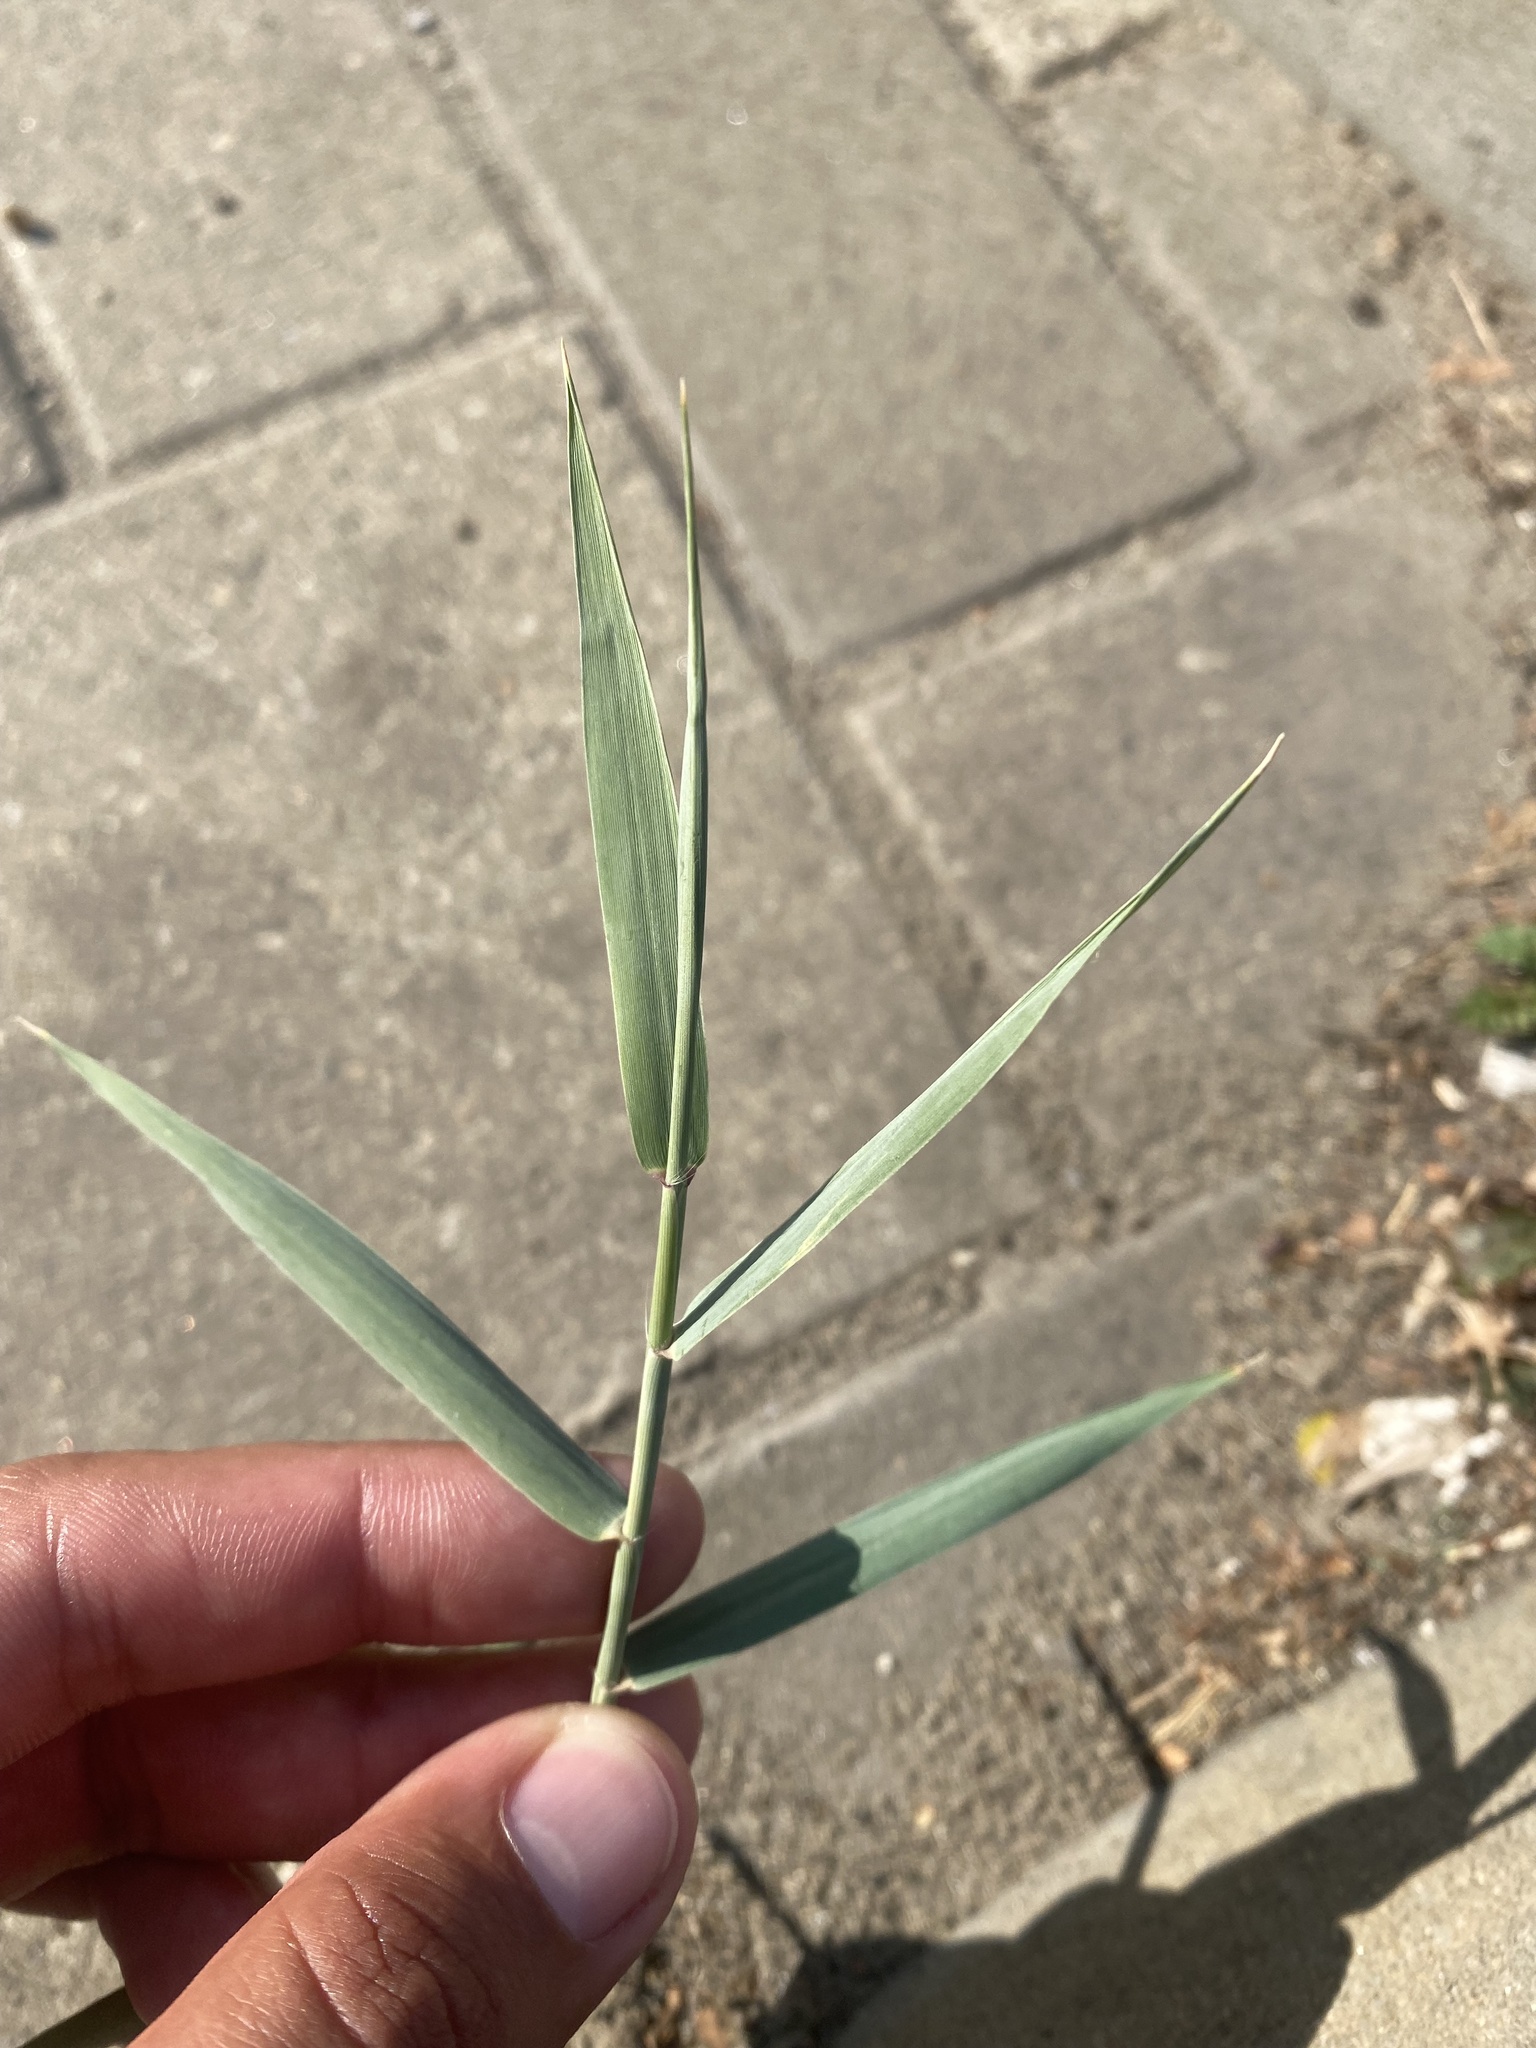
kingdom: Plantae
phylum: Tracheophyta
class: Liliopsida
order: Poales
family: Poaceae
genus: Phragmites
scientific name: Phragmites australis
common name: Common reed
